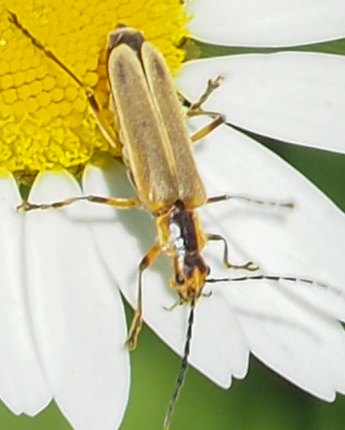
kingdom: Animalia
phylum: Arthropoda
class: Insecta
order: Coleoptera
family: Cantharidae
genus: Chauliognathus
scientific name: Chauliognathus marginatus
